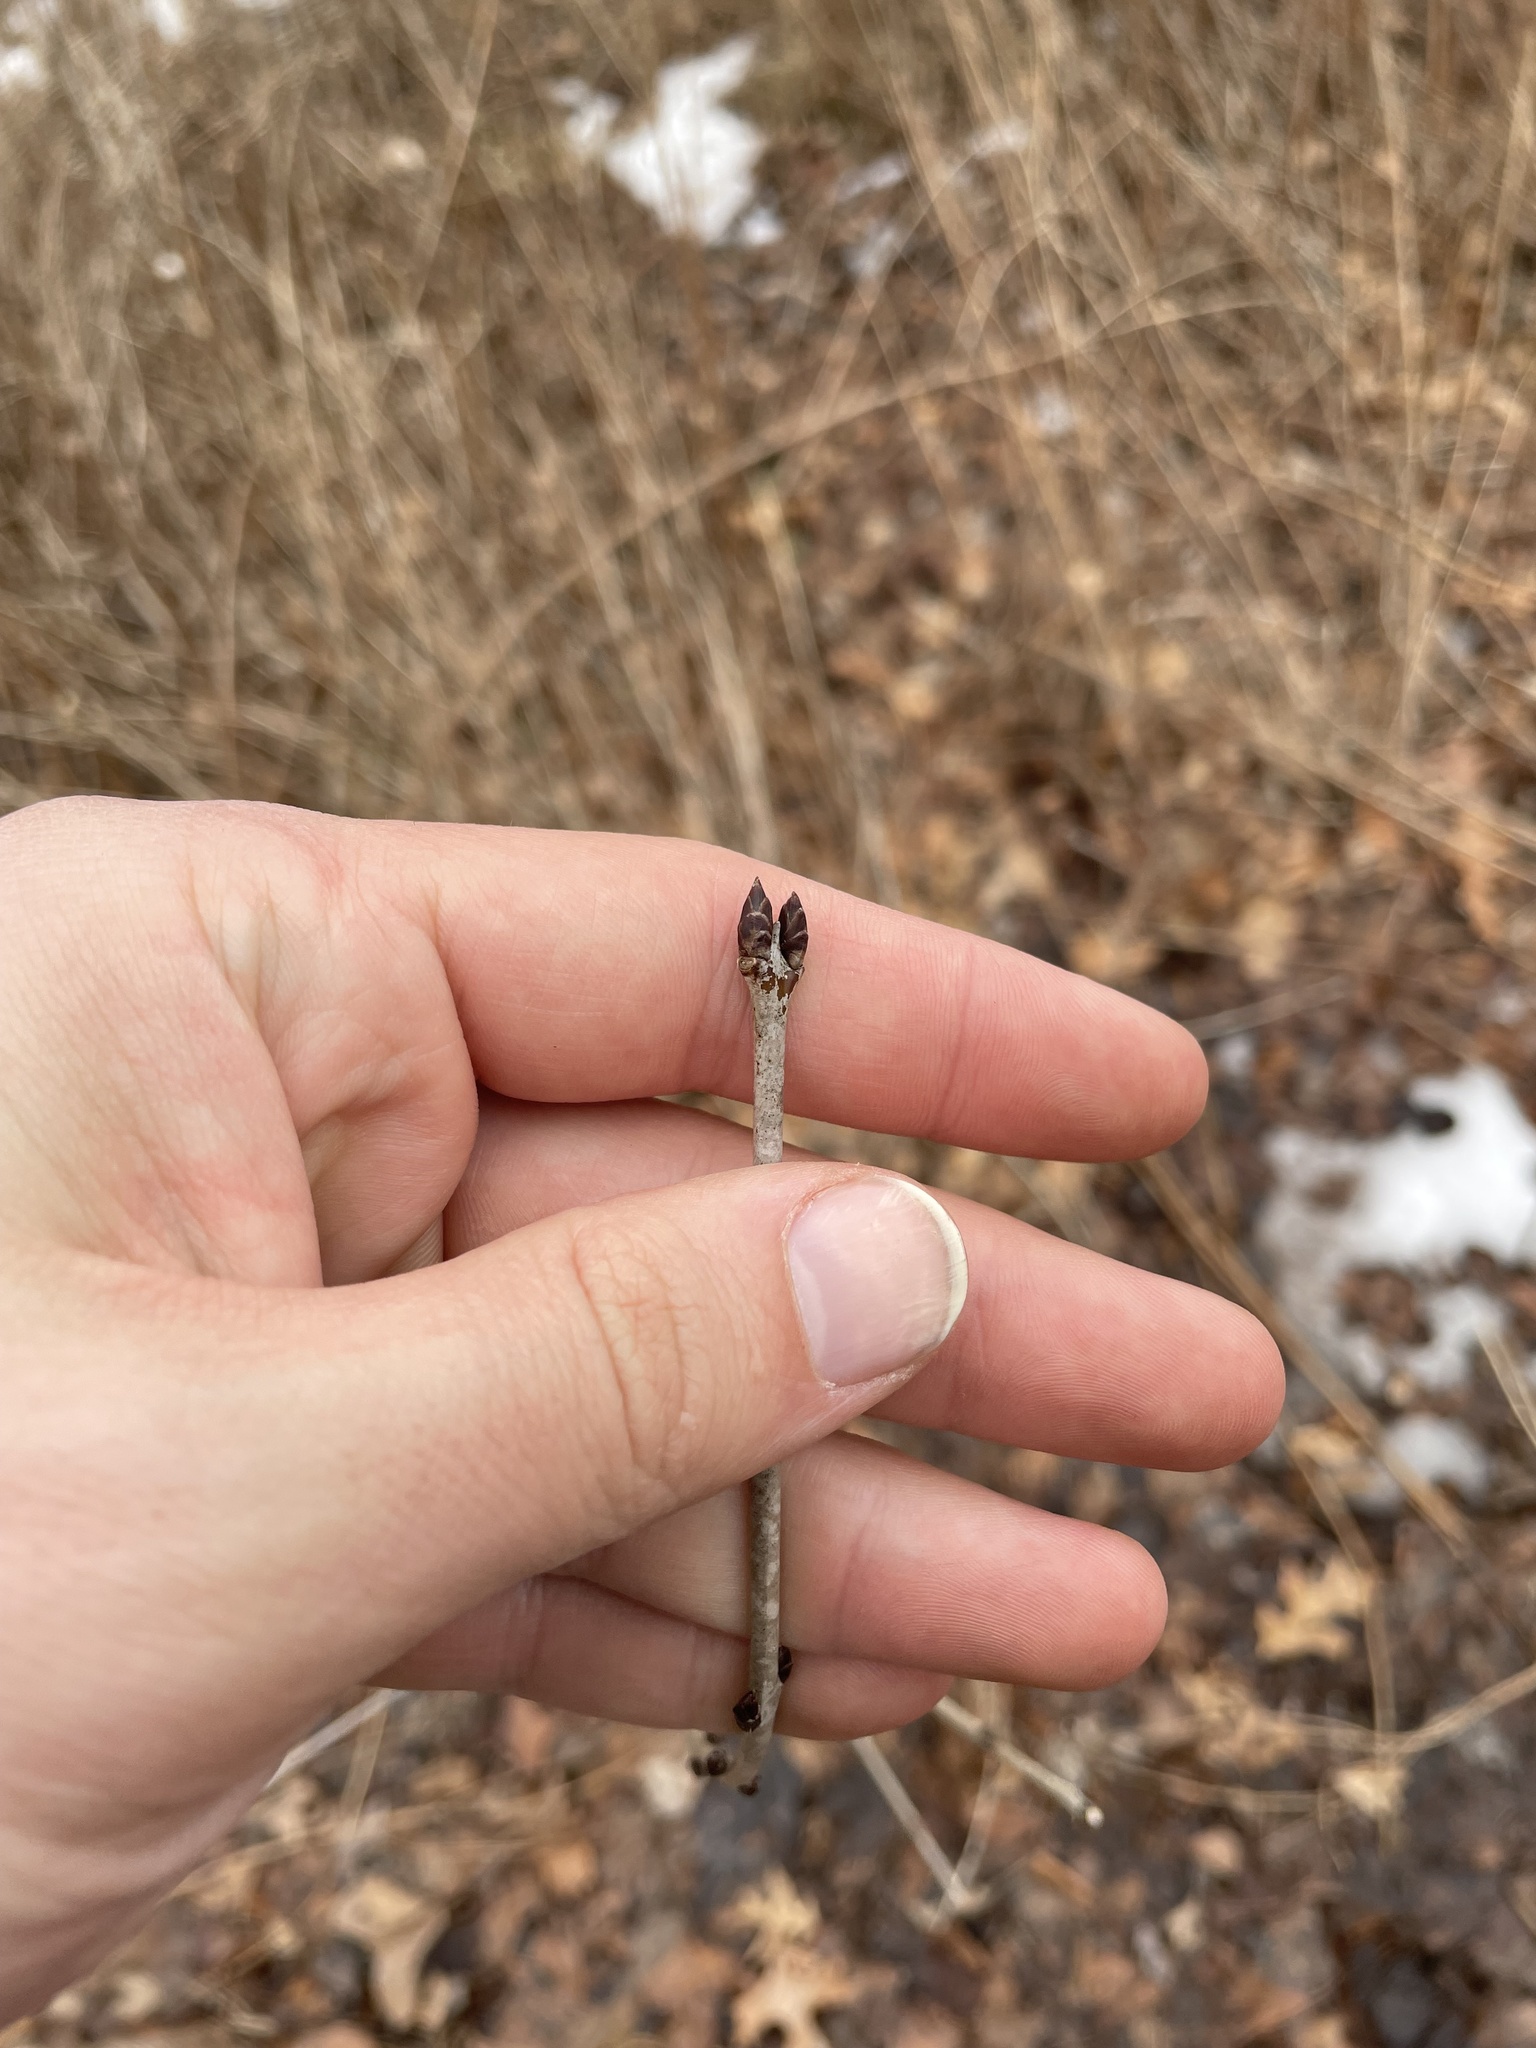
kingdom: Plantae
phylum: Tracheophyta
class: Magnoliopsida
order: Rosales
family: Rhamnaceae
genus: Rhamnus
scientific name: Rhamnus cathartica
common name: Common buckthorn
